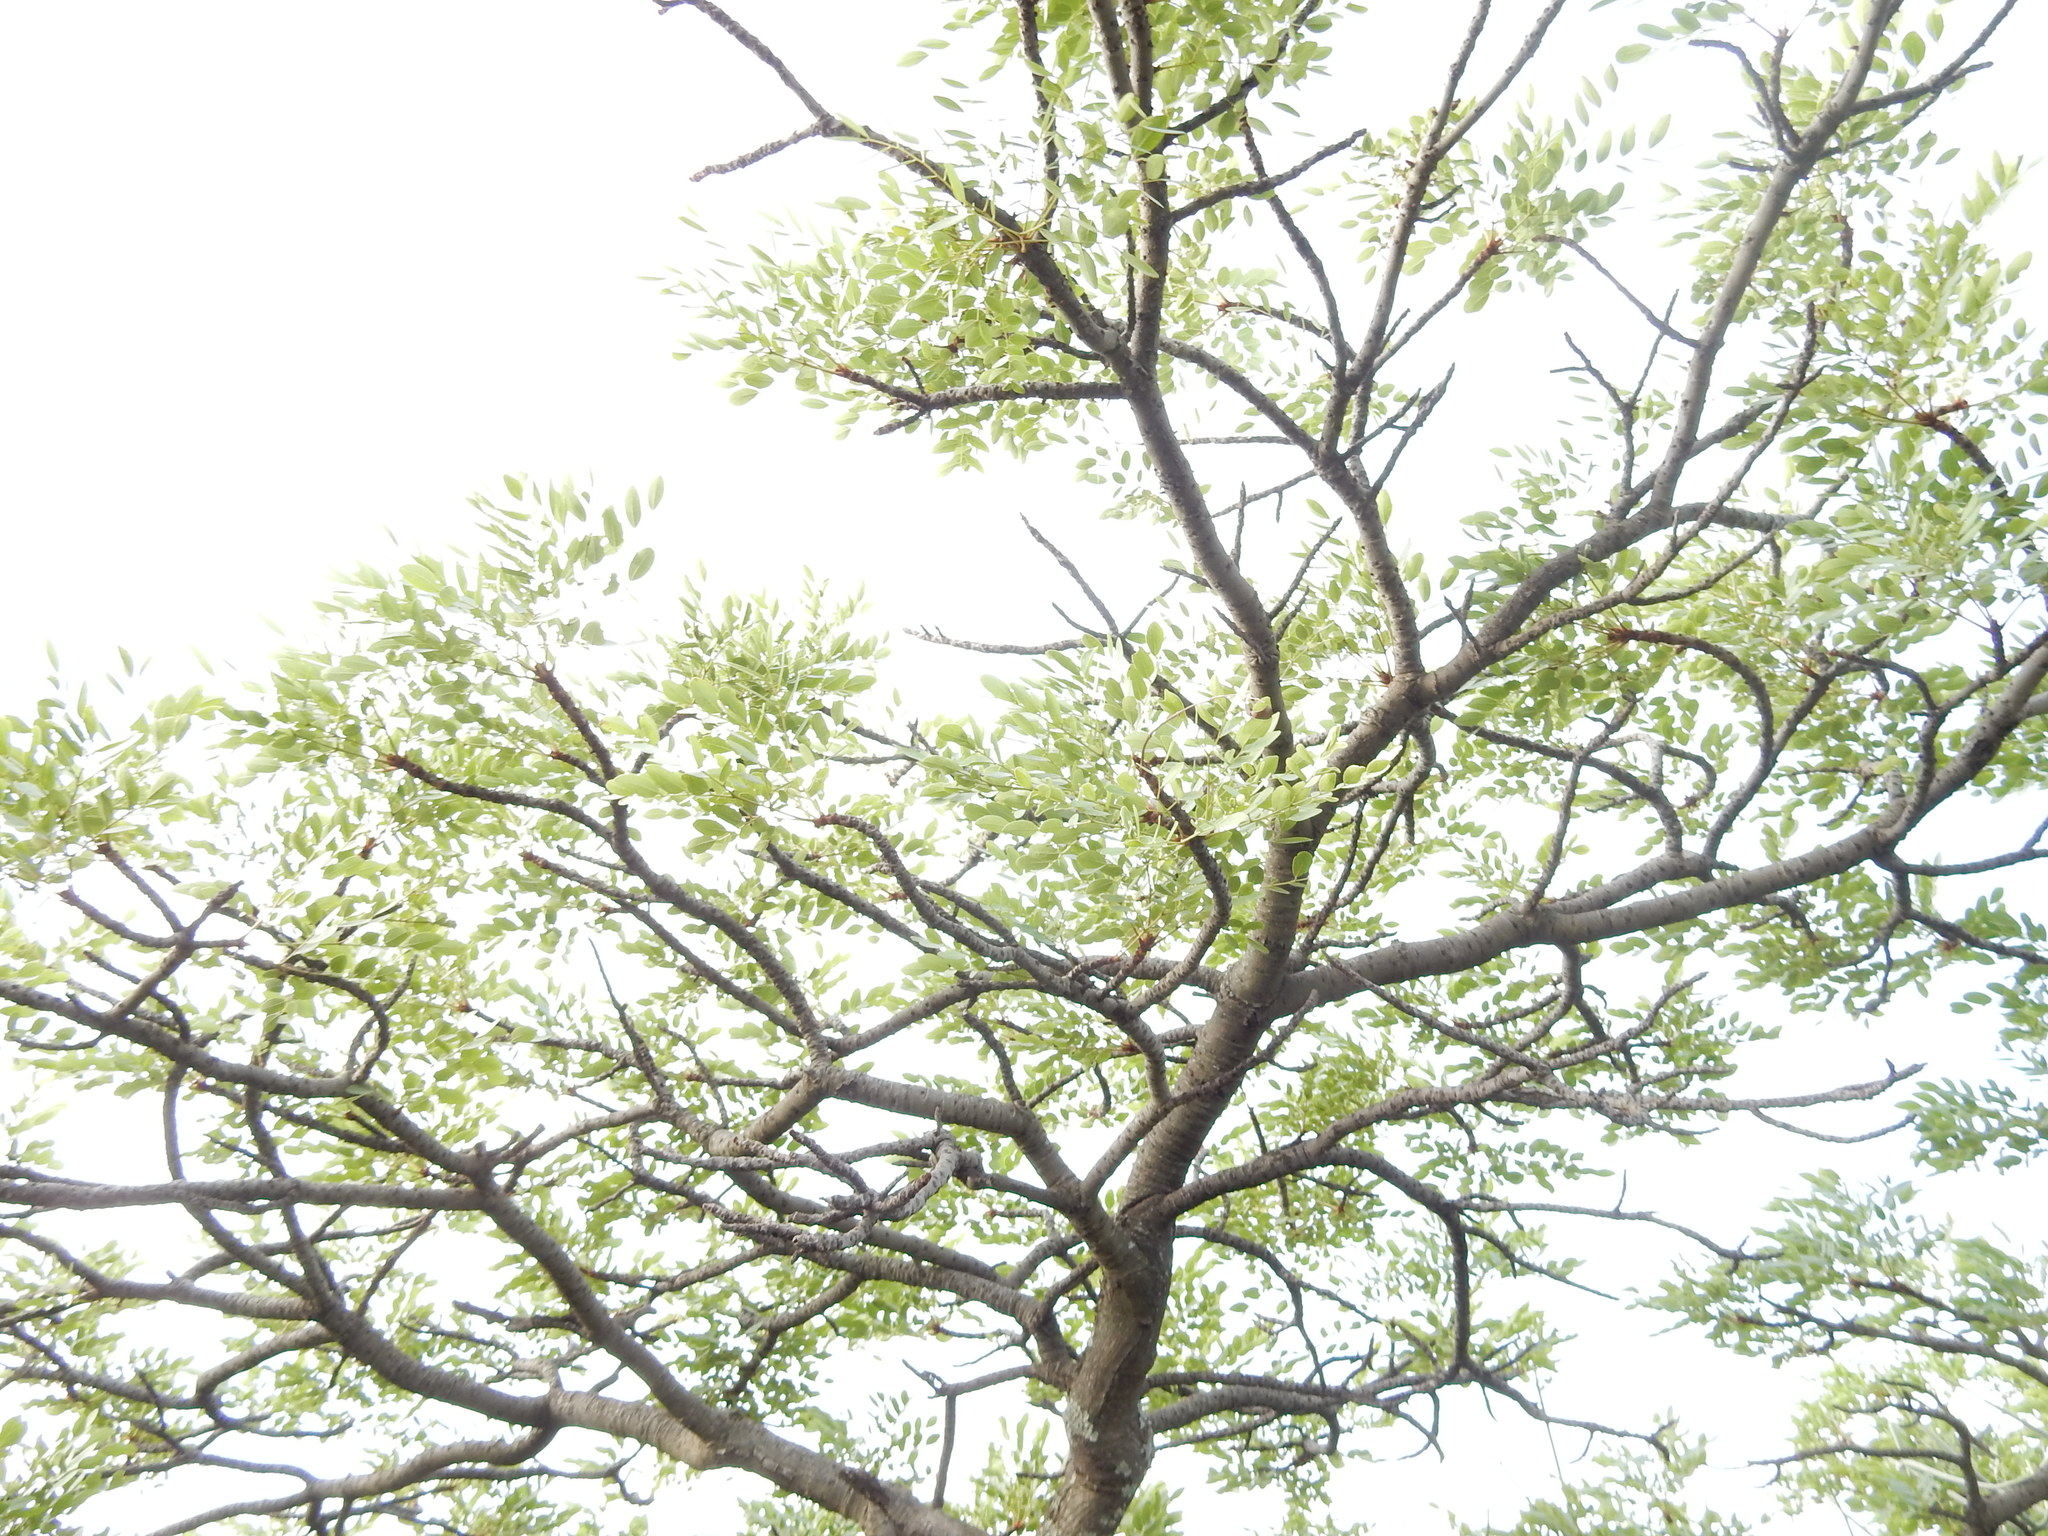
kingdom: Plantae
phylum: Tracheophyta
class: Magnoliopsida
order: Fabales
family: Fabaceae
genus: Burkea
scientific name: Burkea africana
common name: Mkalati tree
